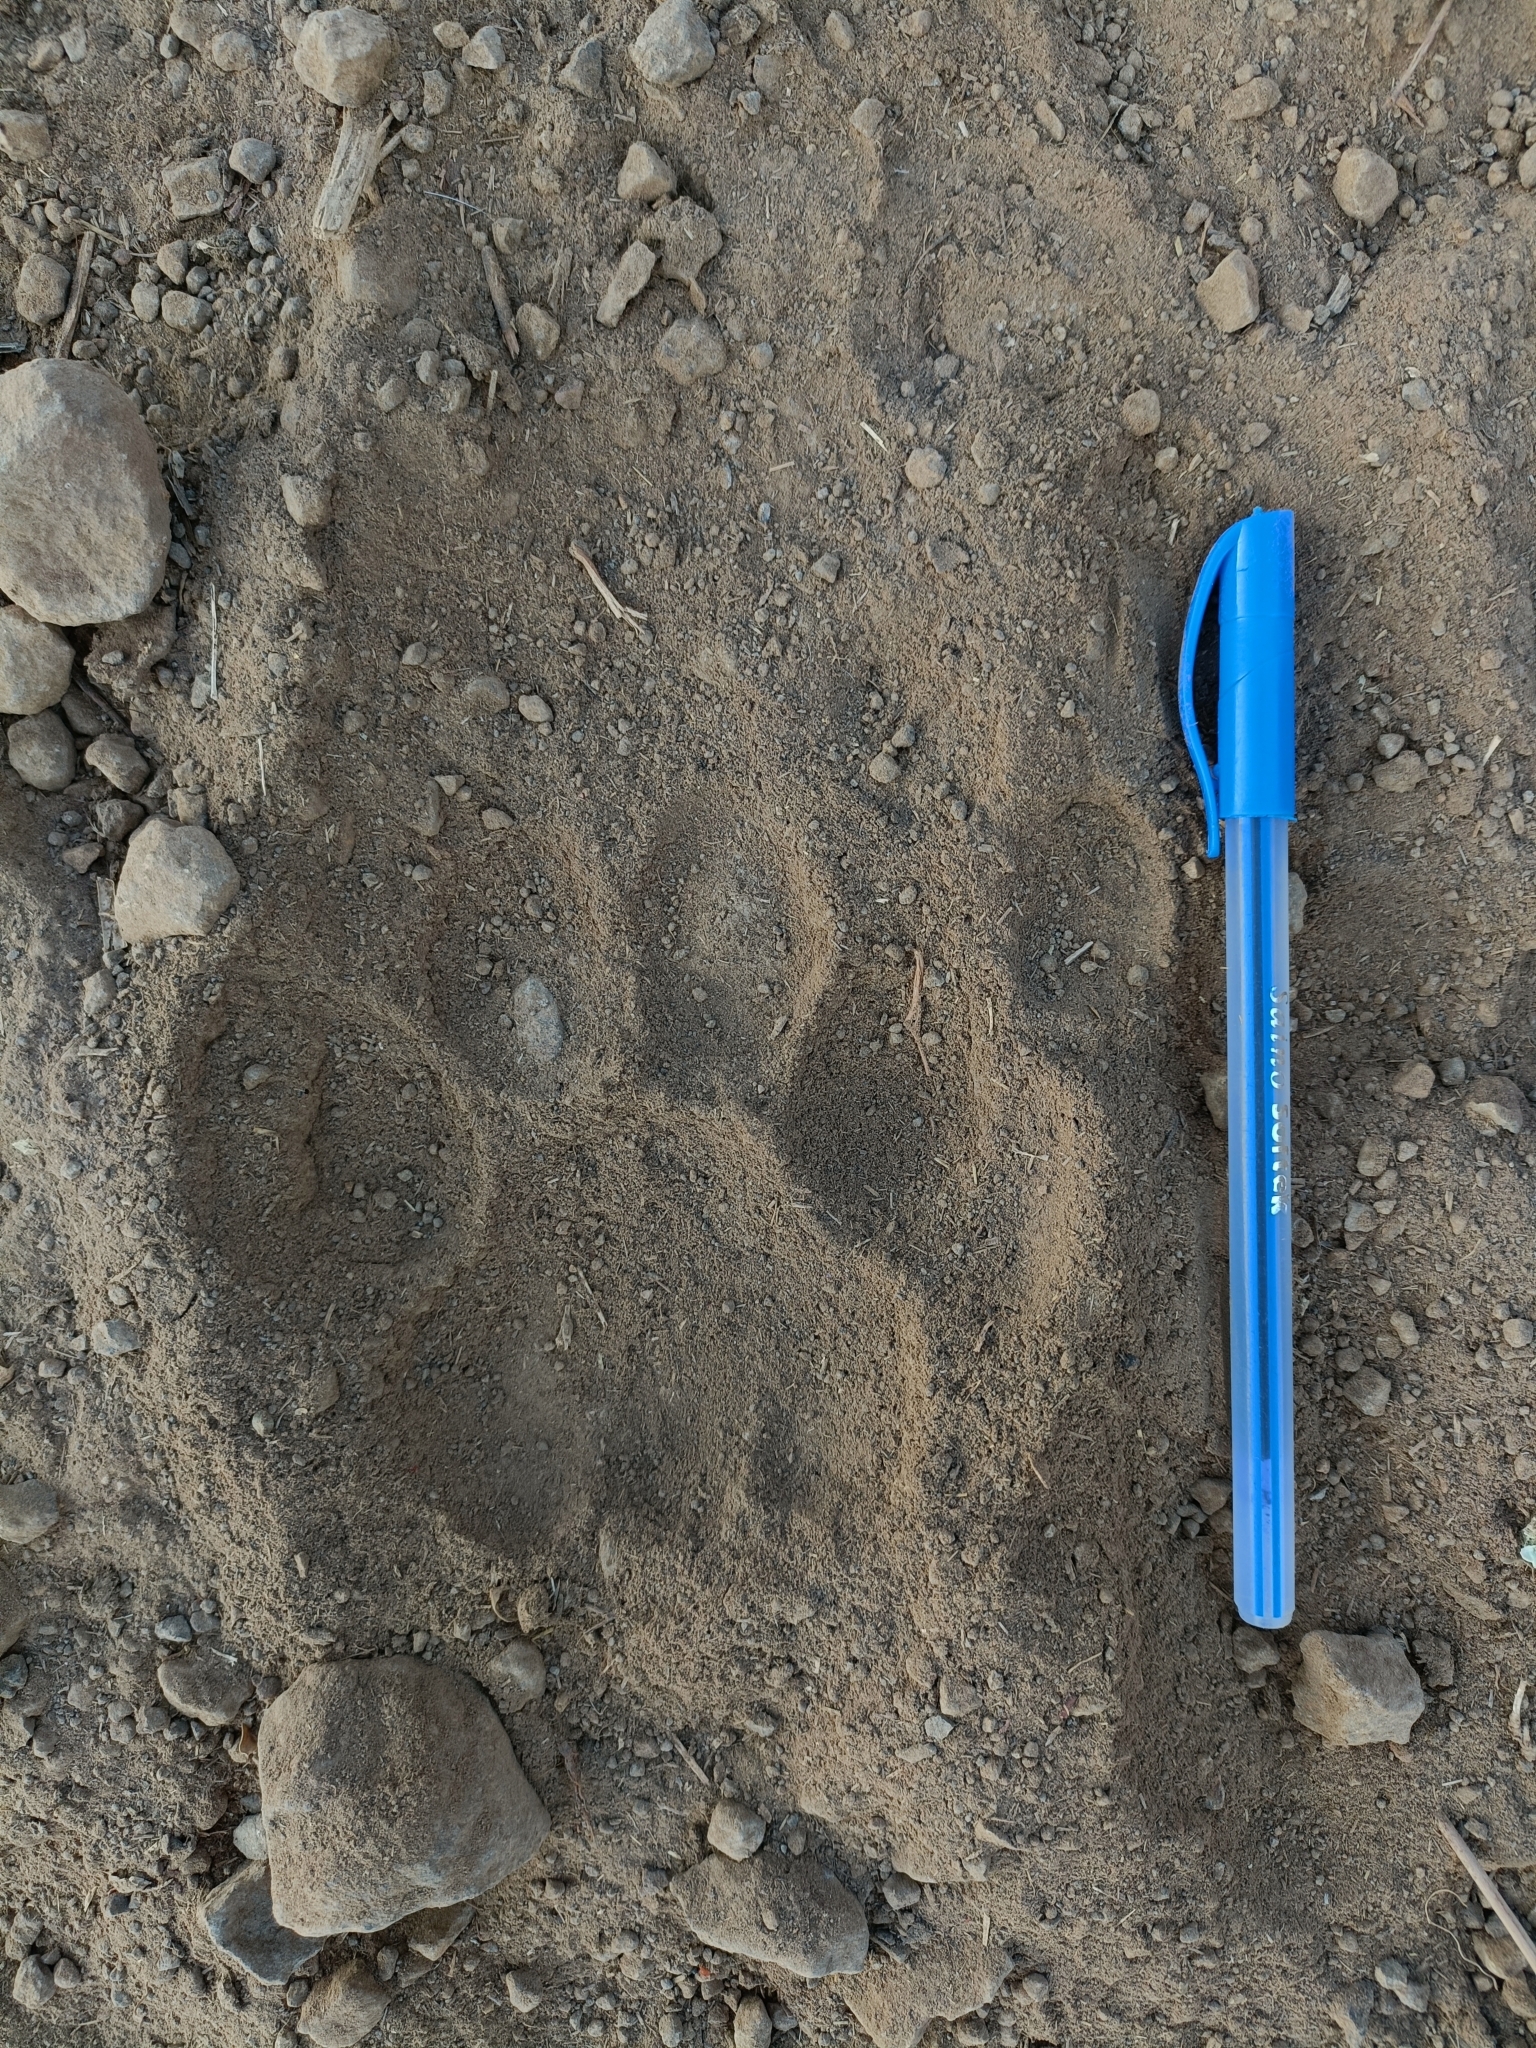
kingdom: Animalia
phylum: Chordata
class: Mammalia
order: Carnivora
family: Felidae
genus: Panthera
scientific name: Panthera pardus
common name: Leopard
